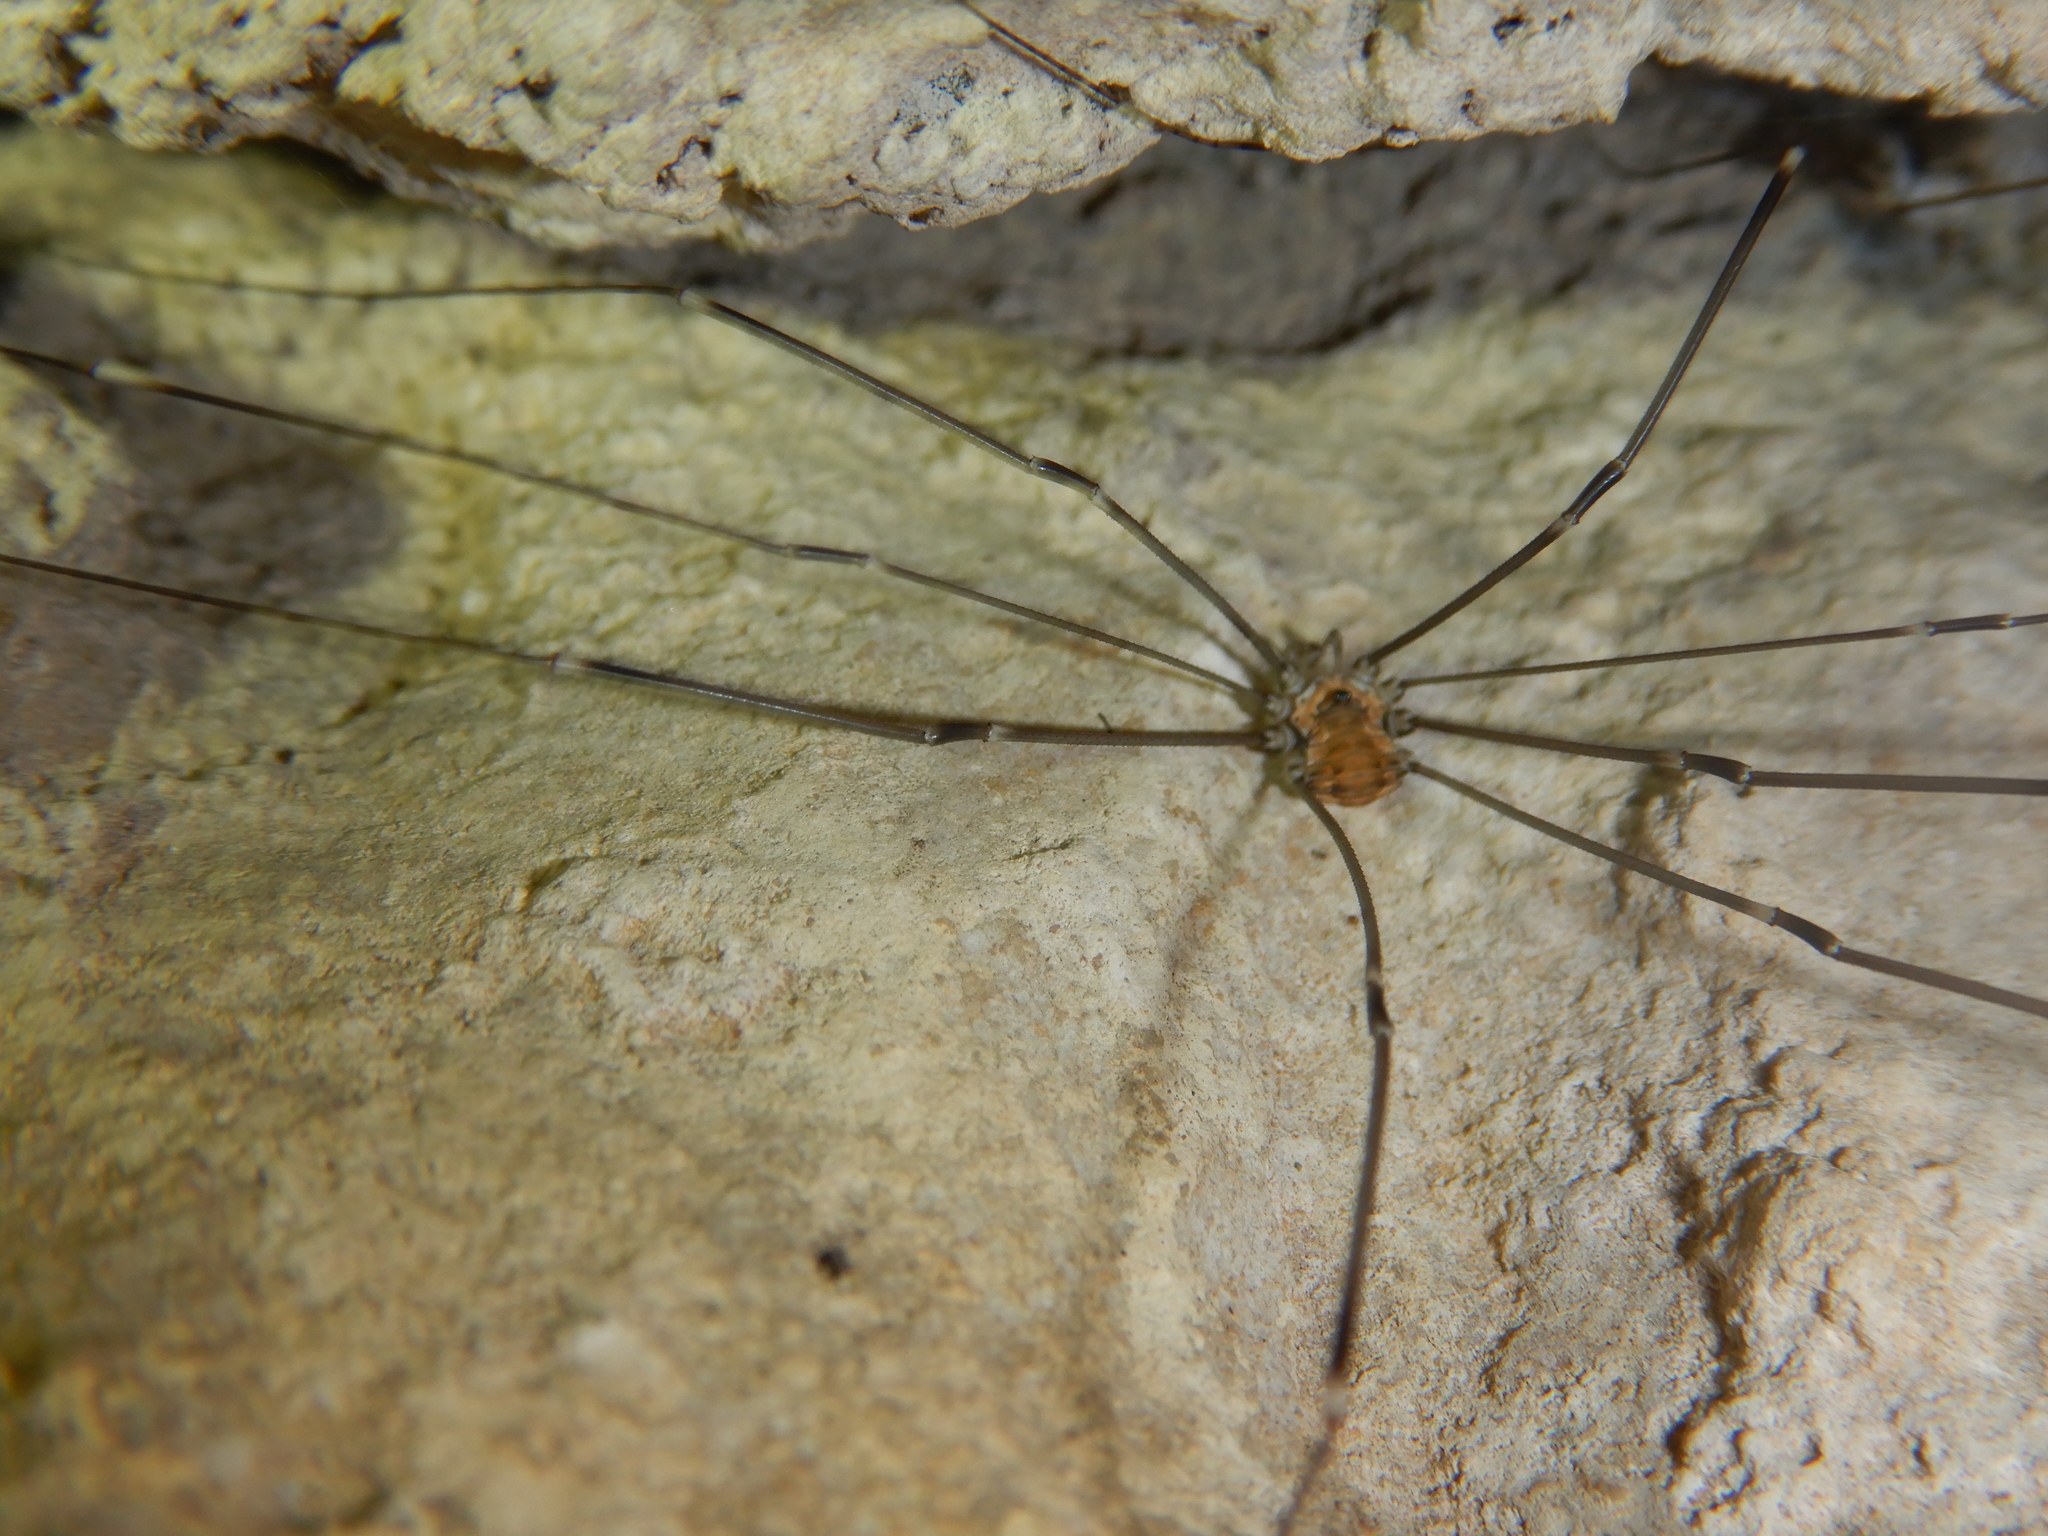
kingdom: Animalia
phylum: Arthropoda
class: Arachnida
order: Opiliones
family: Sclerosomatidae
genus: Leiobunum
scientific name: Leiobunum limbatum
